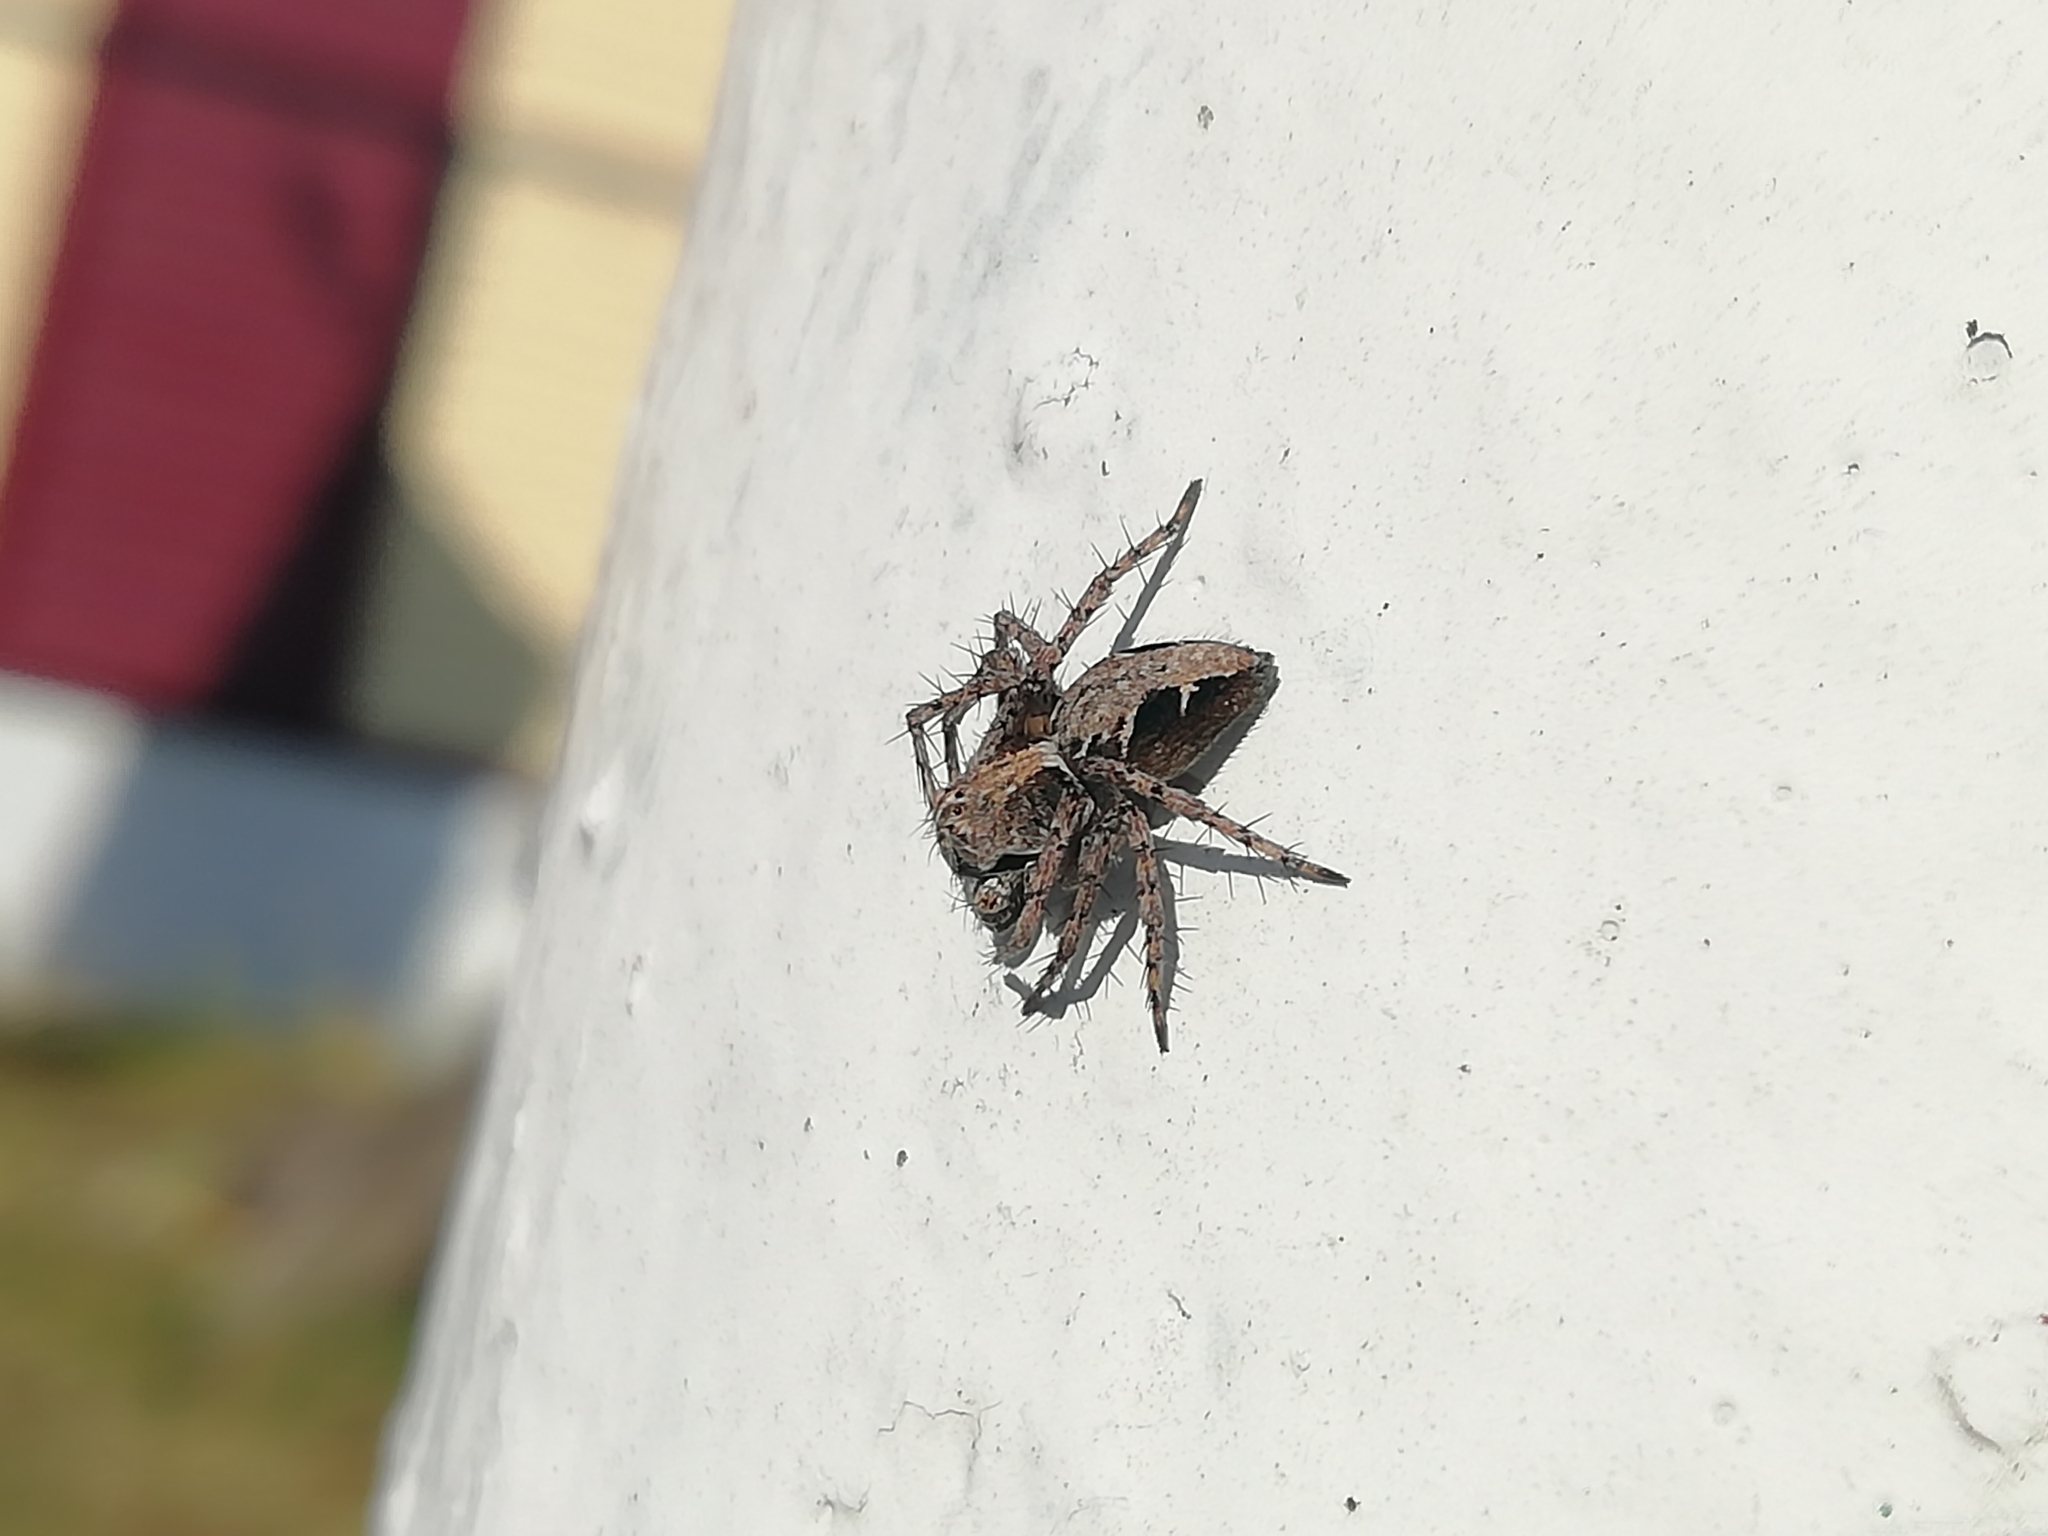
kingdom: Animalia
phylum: Arthropoda
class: Arachnida
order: Araneae
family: Oxyopidae
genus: Oxyopes
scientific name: Oxyopes ramosus
